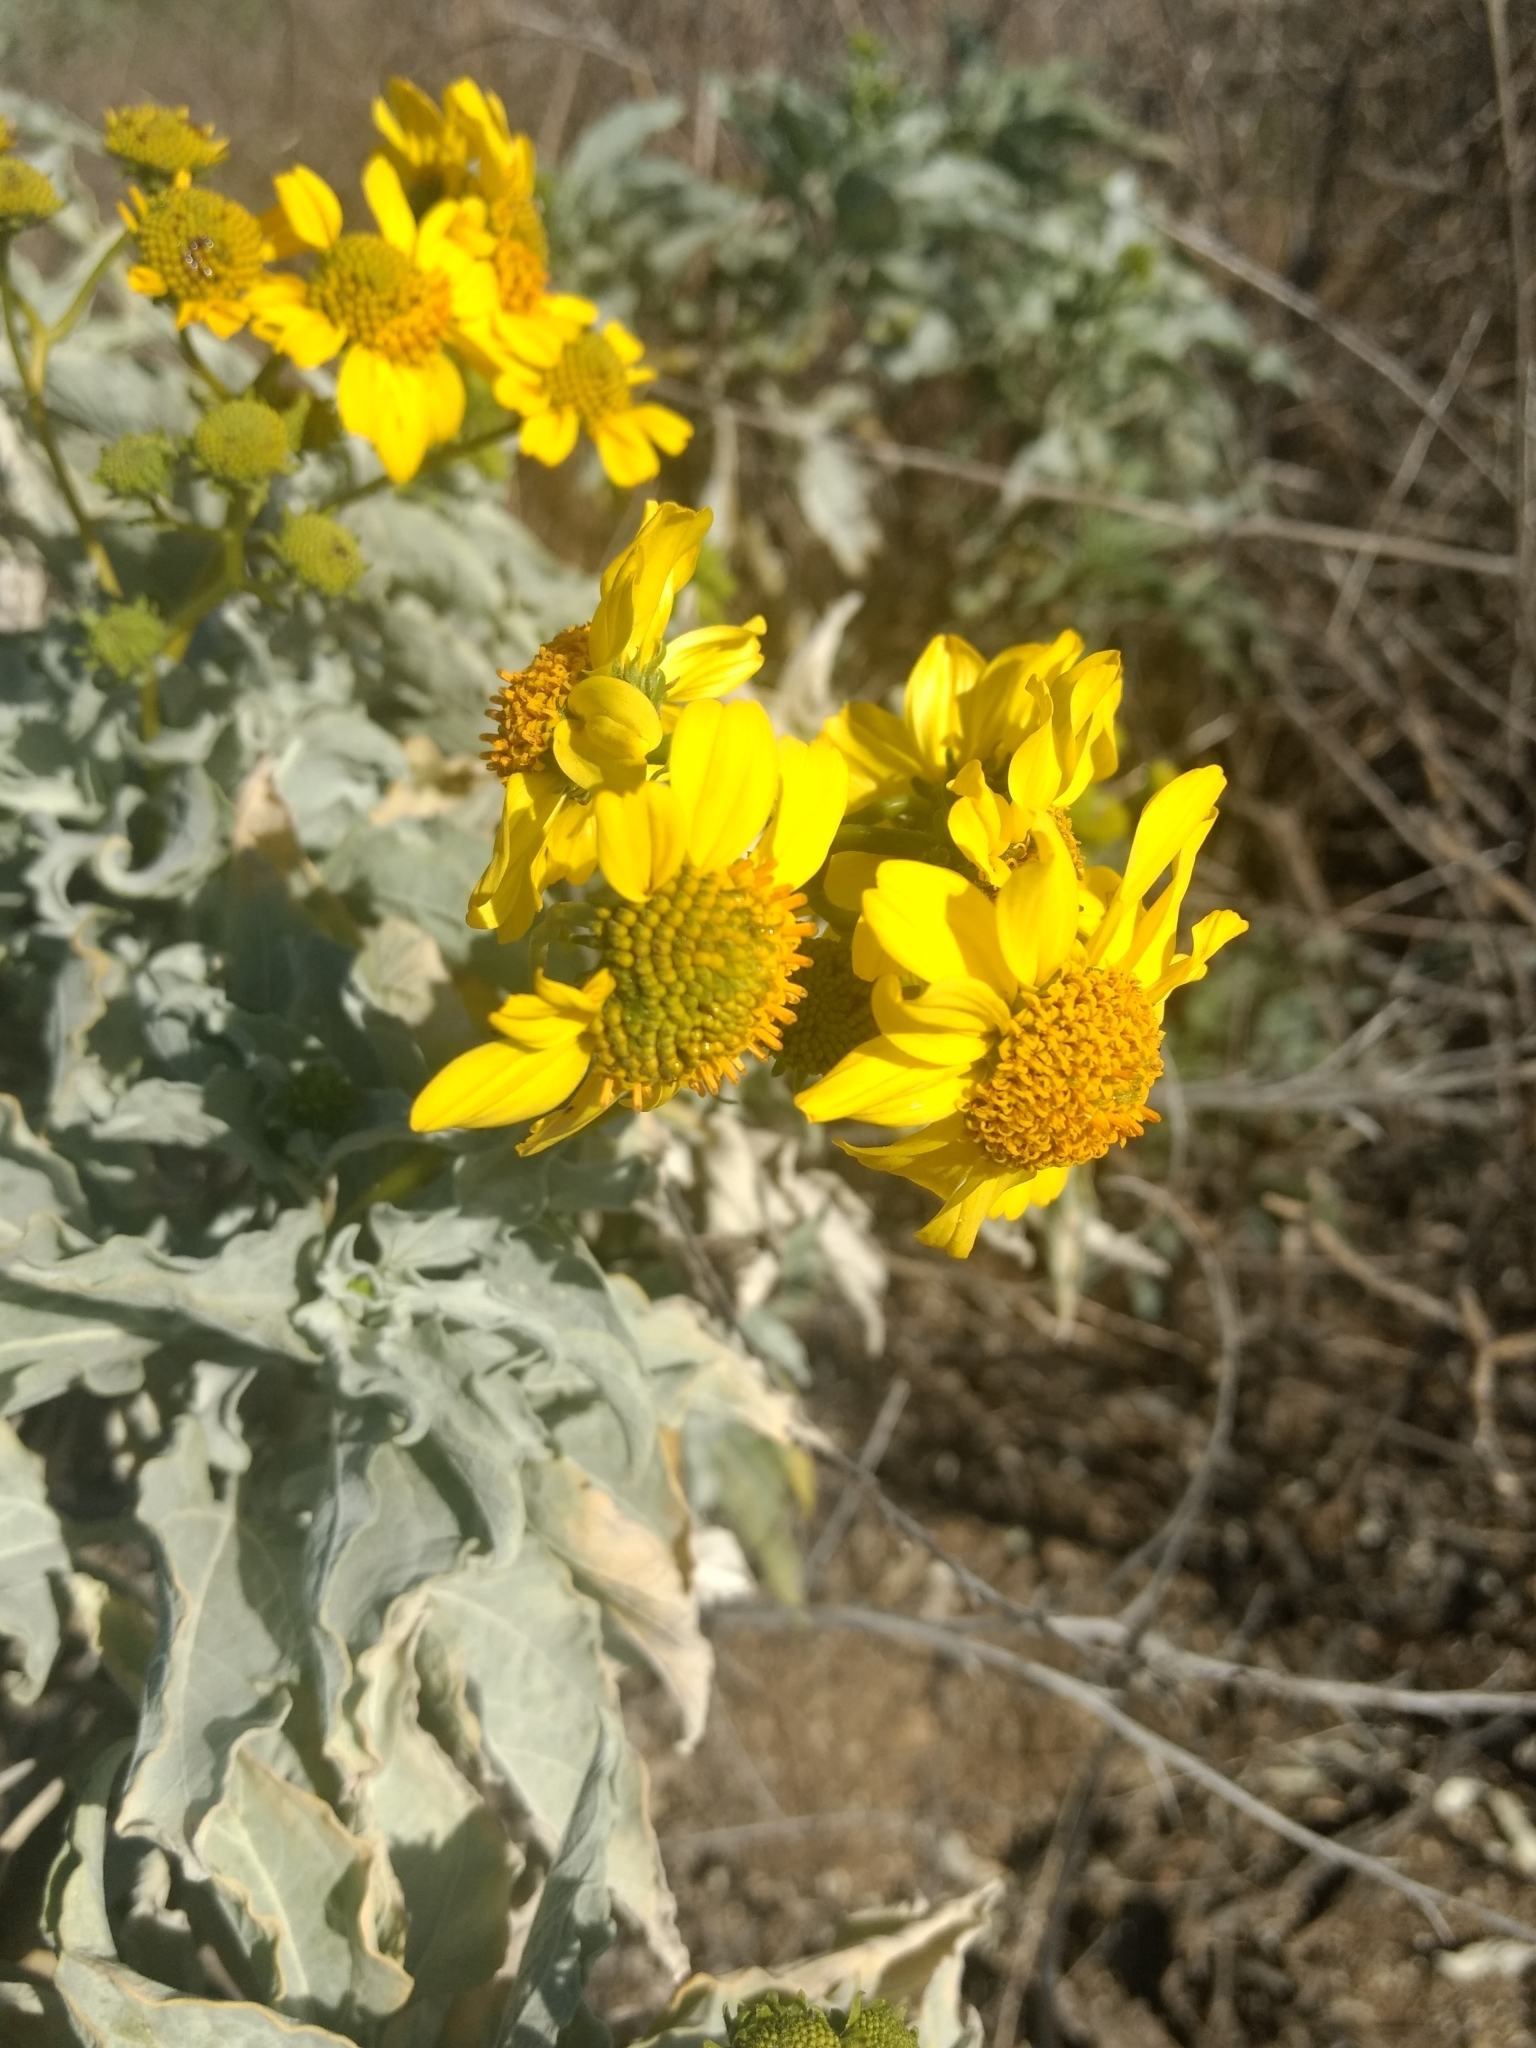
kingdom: Plantae
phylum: Tracheophyta
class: Magnoliopsida
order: Asterales
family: Asteraceae
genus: Encelia
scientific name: Encelia farinosa
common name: Brittlebush
